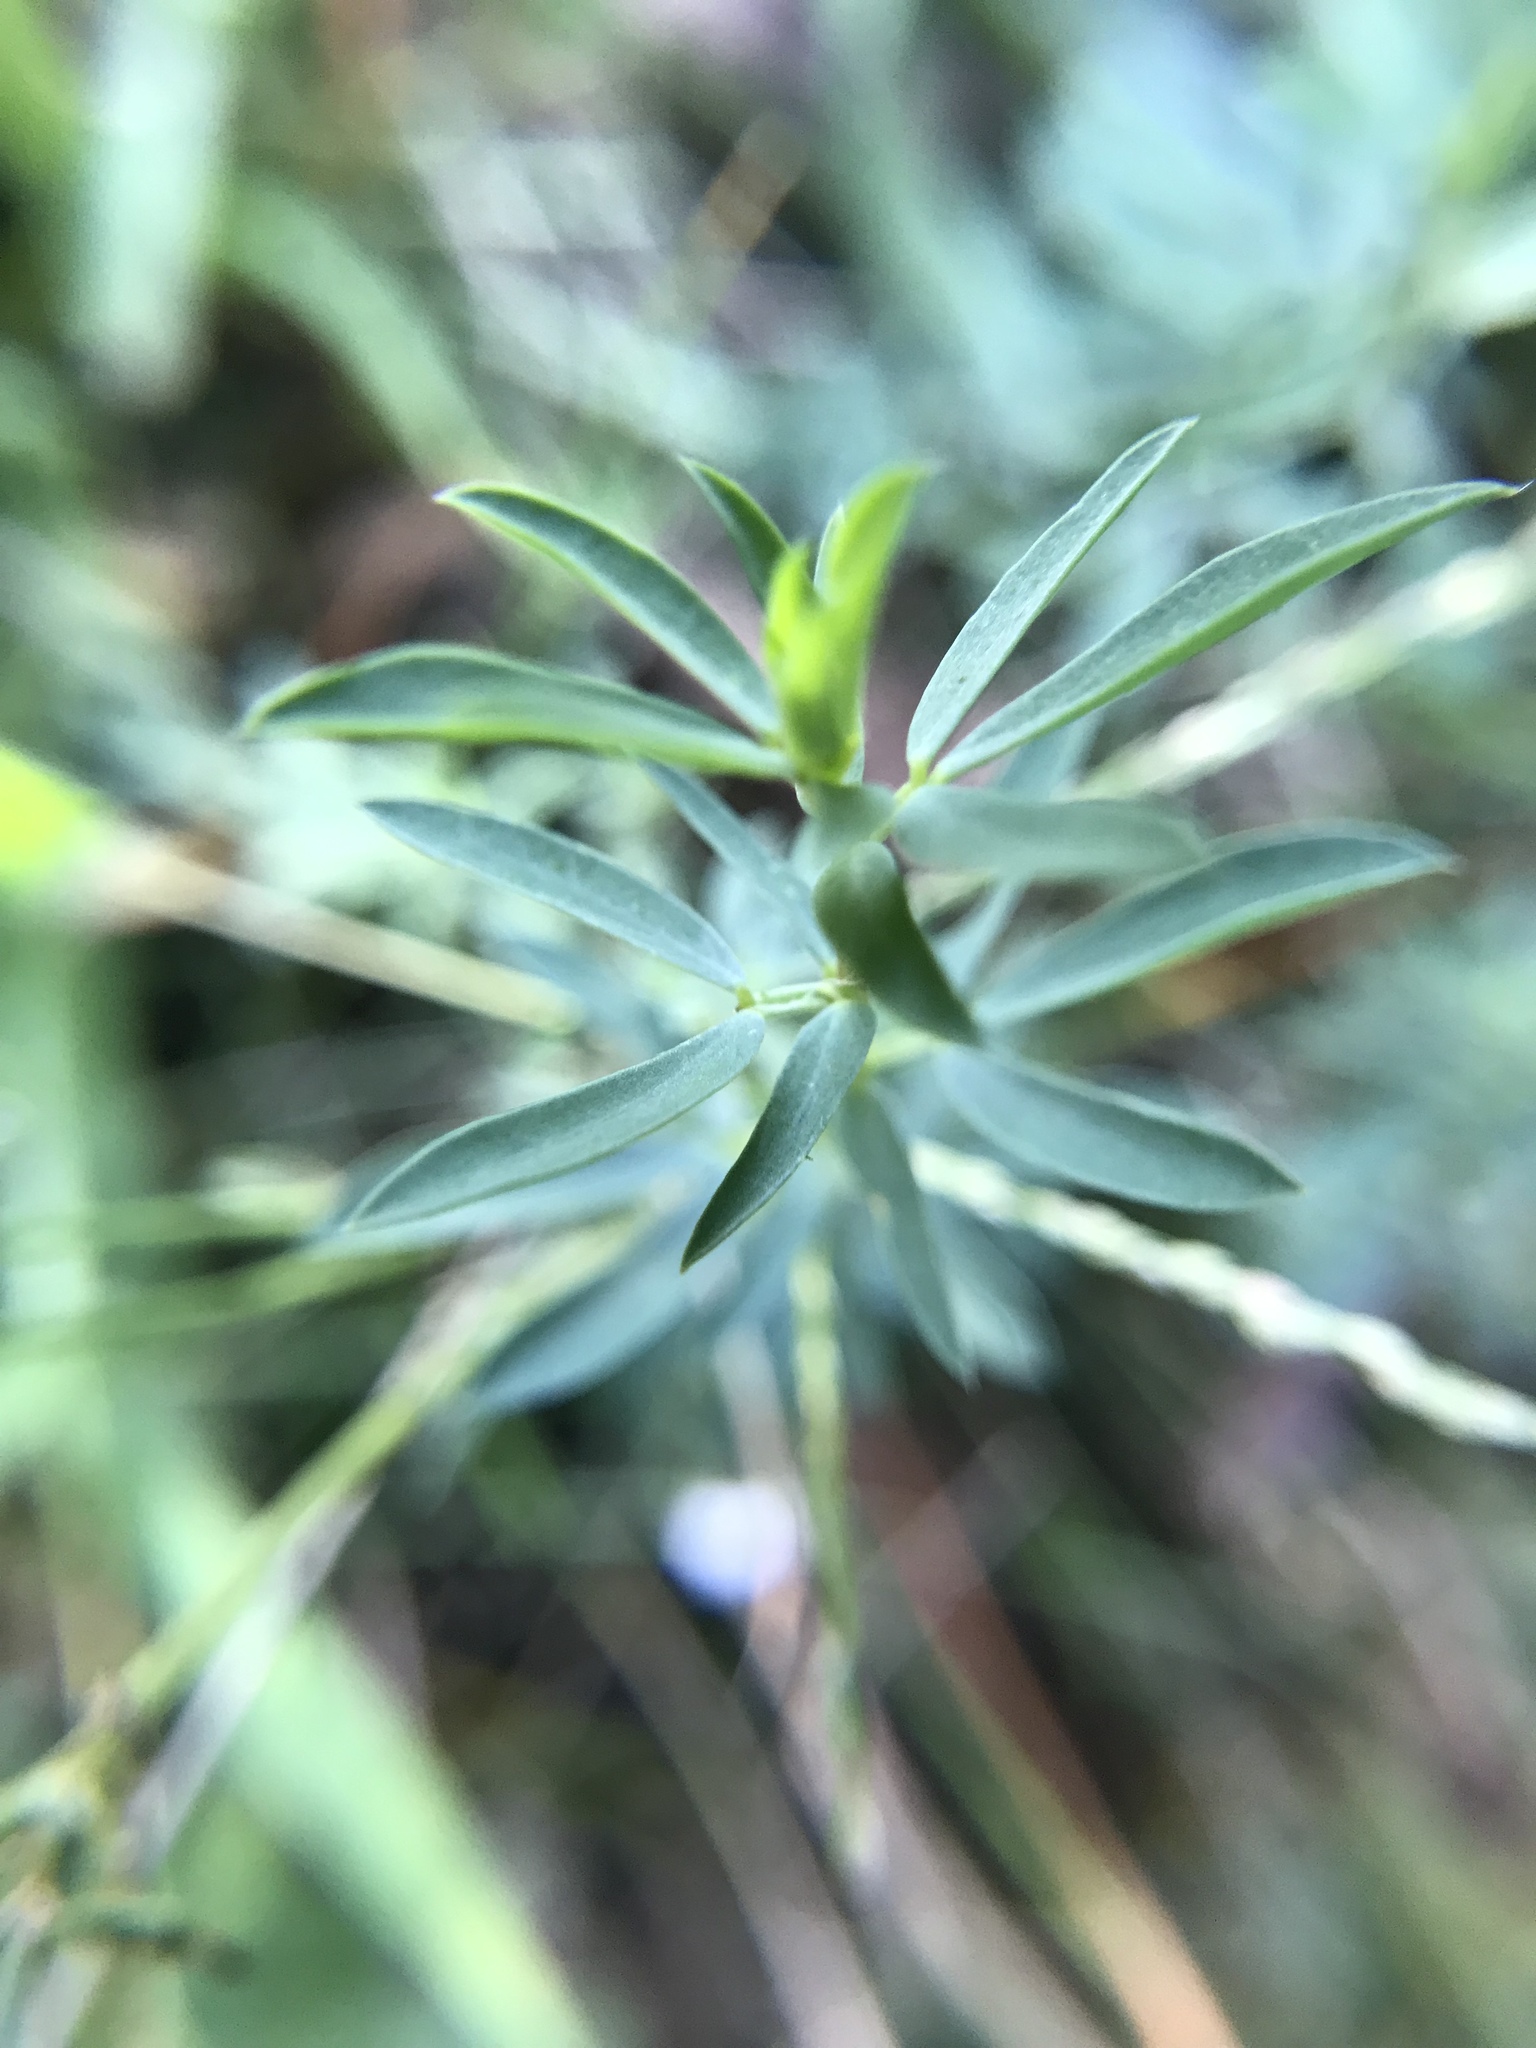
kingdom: Plantae
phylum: Tracheophyta
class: Magnoliopsida
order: Fabales
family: Fabaceae
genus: Lotus
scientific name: Lotus tenuis
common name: Narrow-leaved bird's-foot-trefoil
